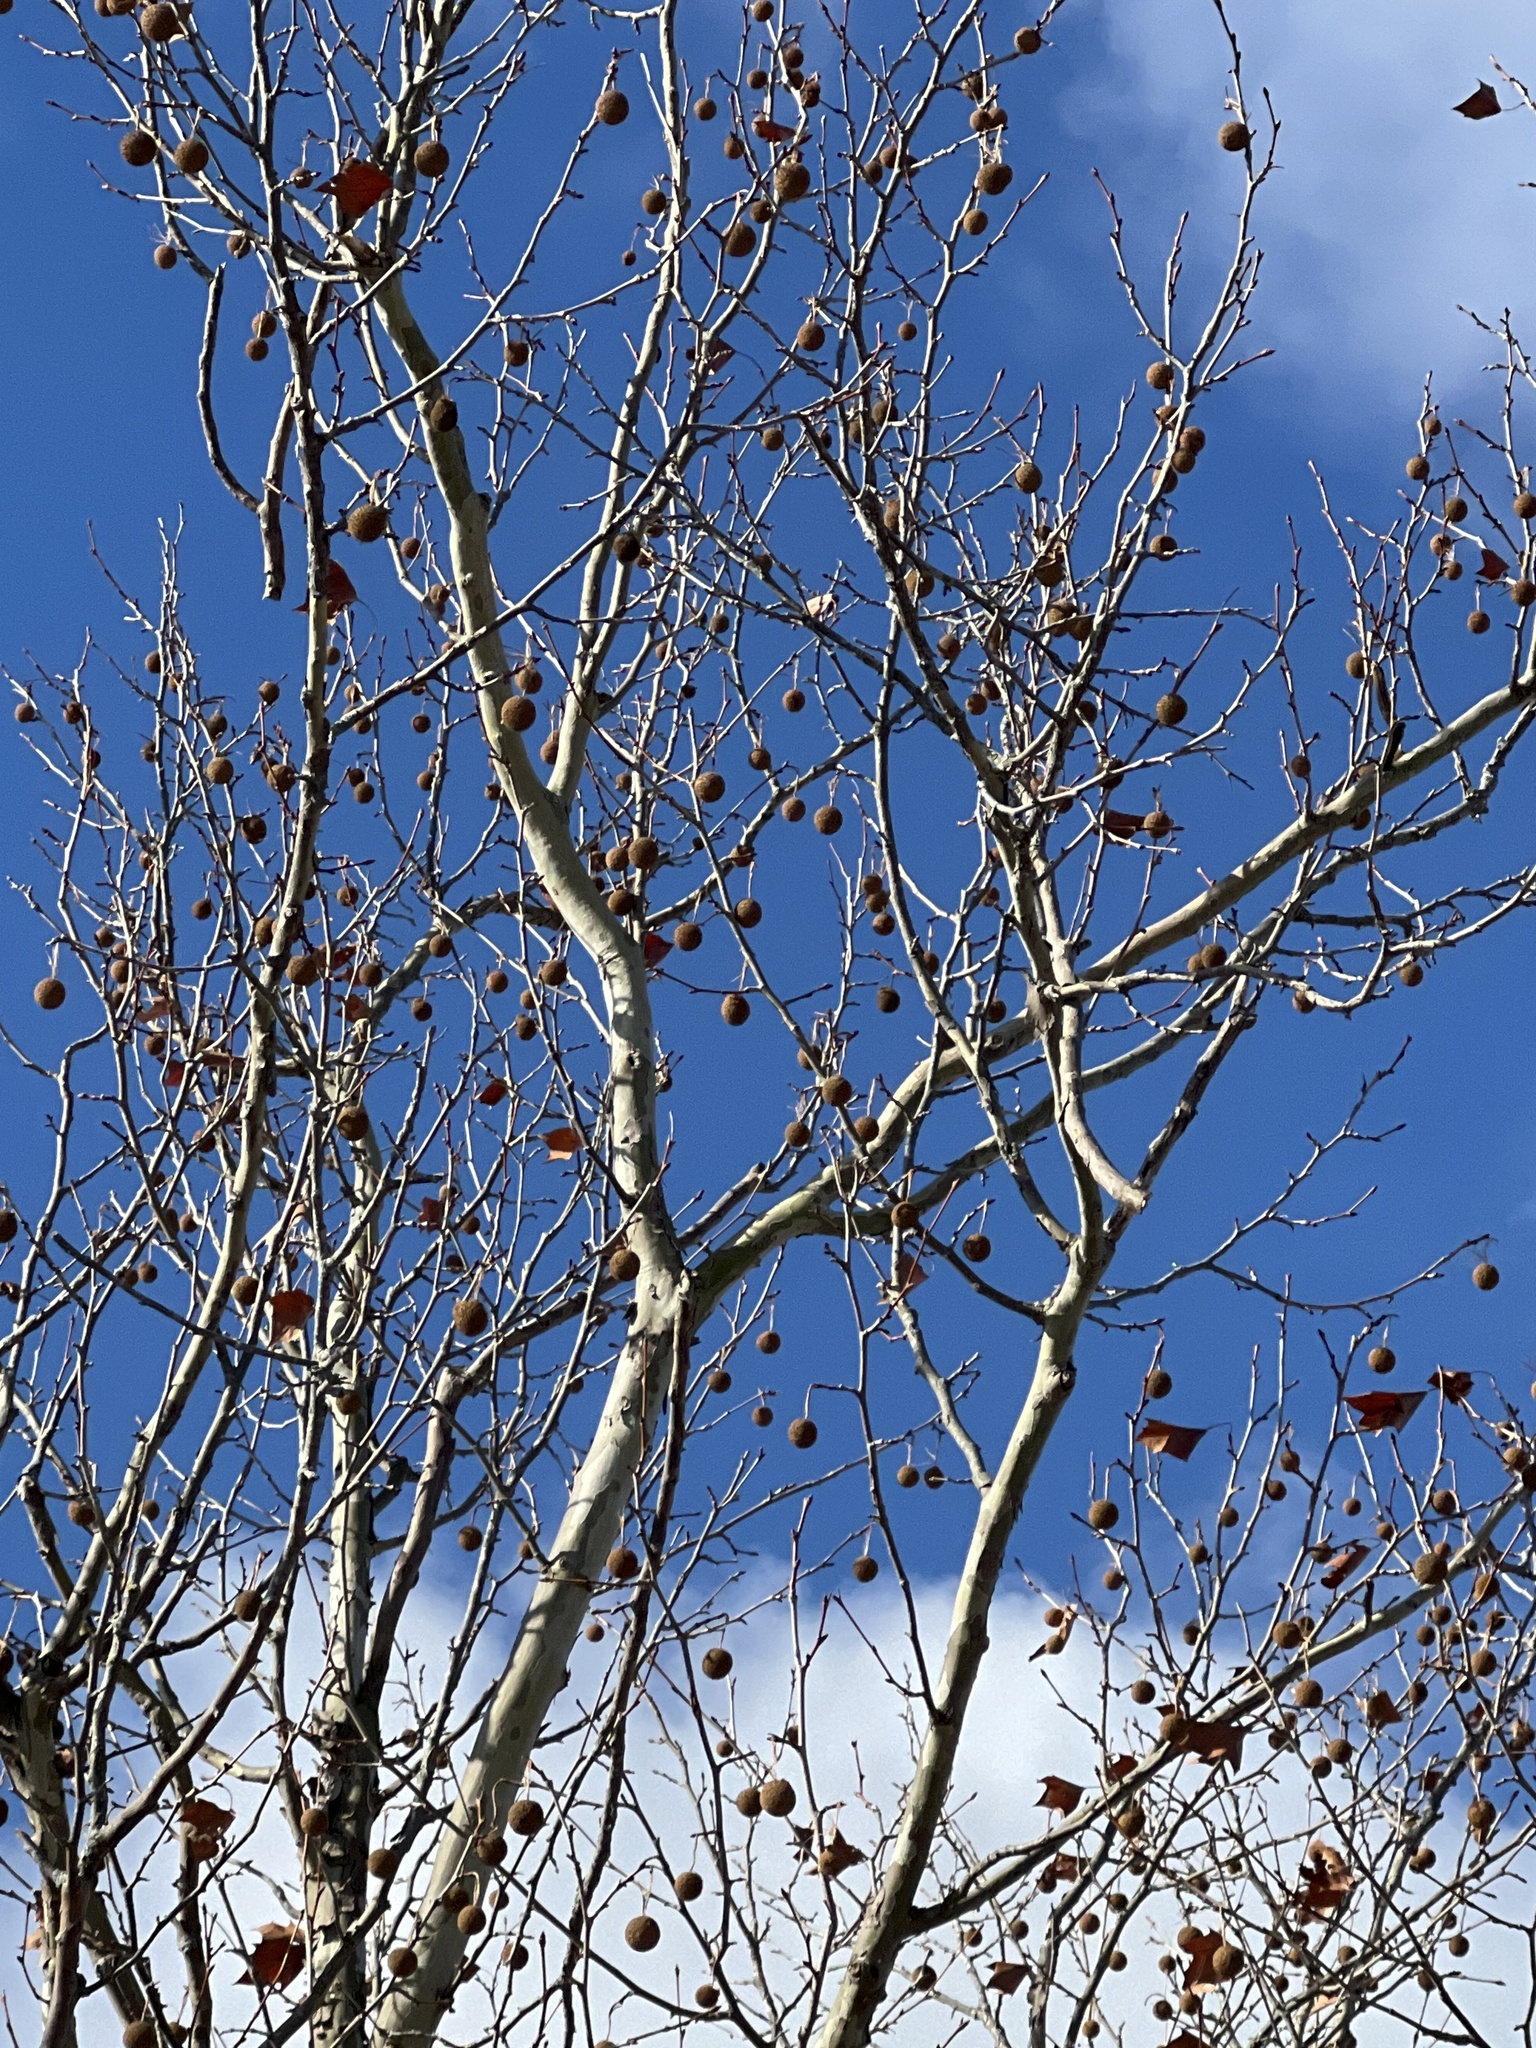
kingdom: Plantae
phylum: Tracheophyta
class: Magnoliopsida
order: Proteales
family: Platanaceae
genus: Platanus
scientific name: Platanus occidentalis
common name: American sycamore
